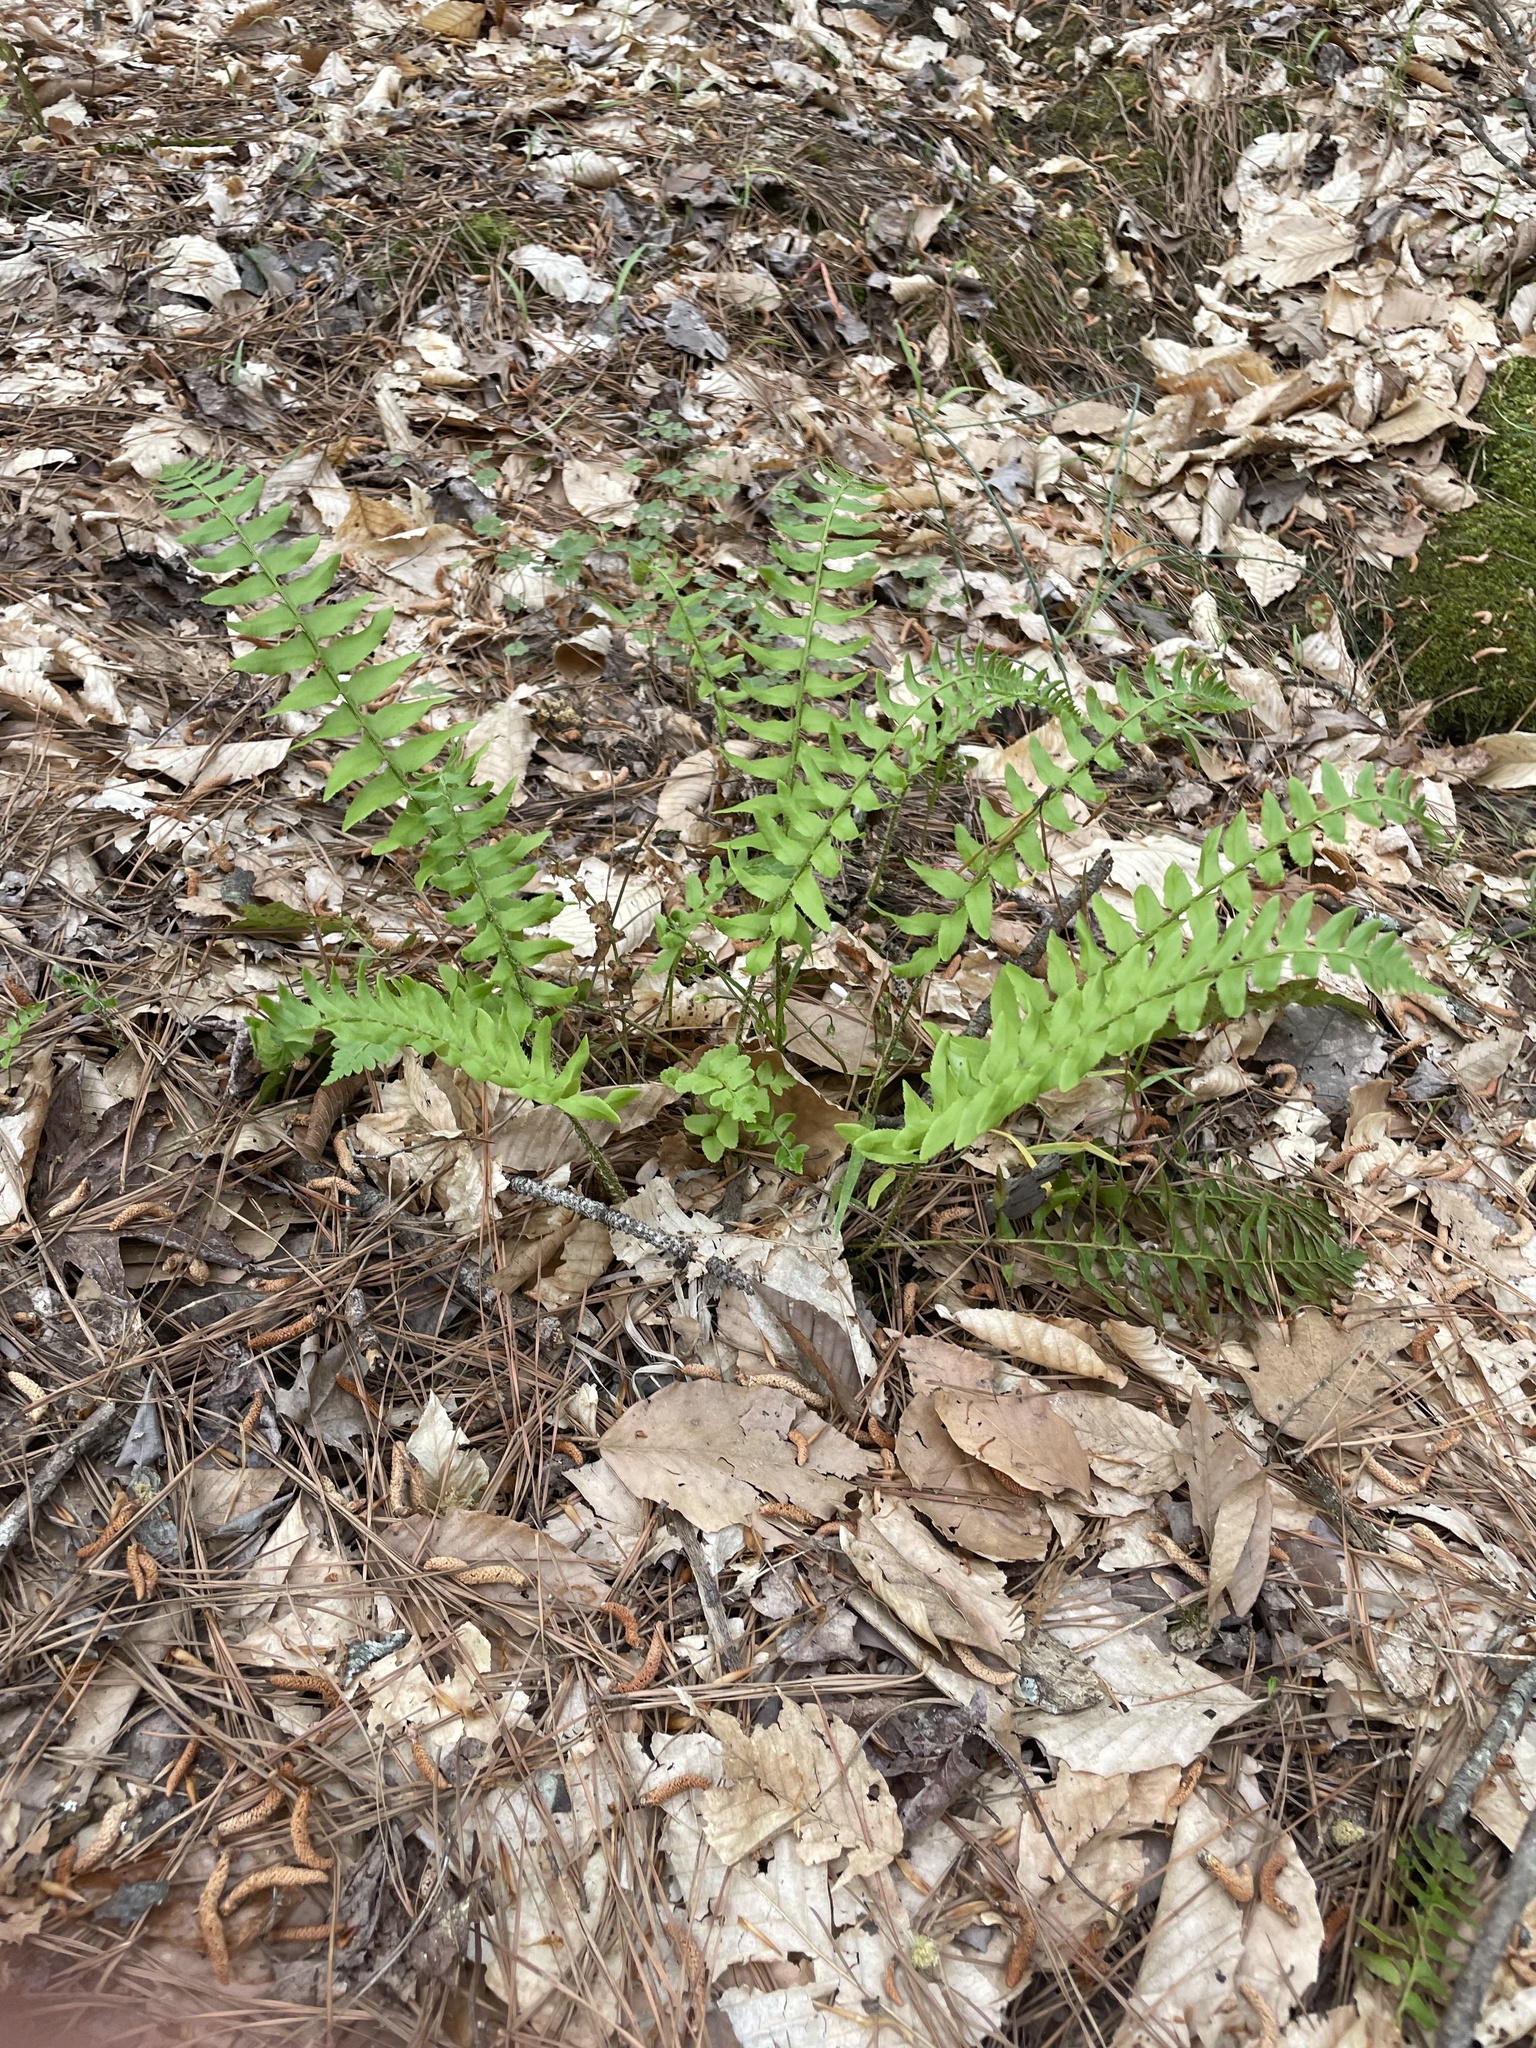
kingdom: Plantae
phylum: Tracheophyta
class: Polypodiopsida
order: Polypodiales
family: Dryopteridaceae
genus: Polystichum
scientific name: Polystichum acrostichoides
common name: Christmas fern
